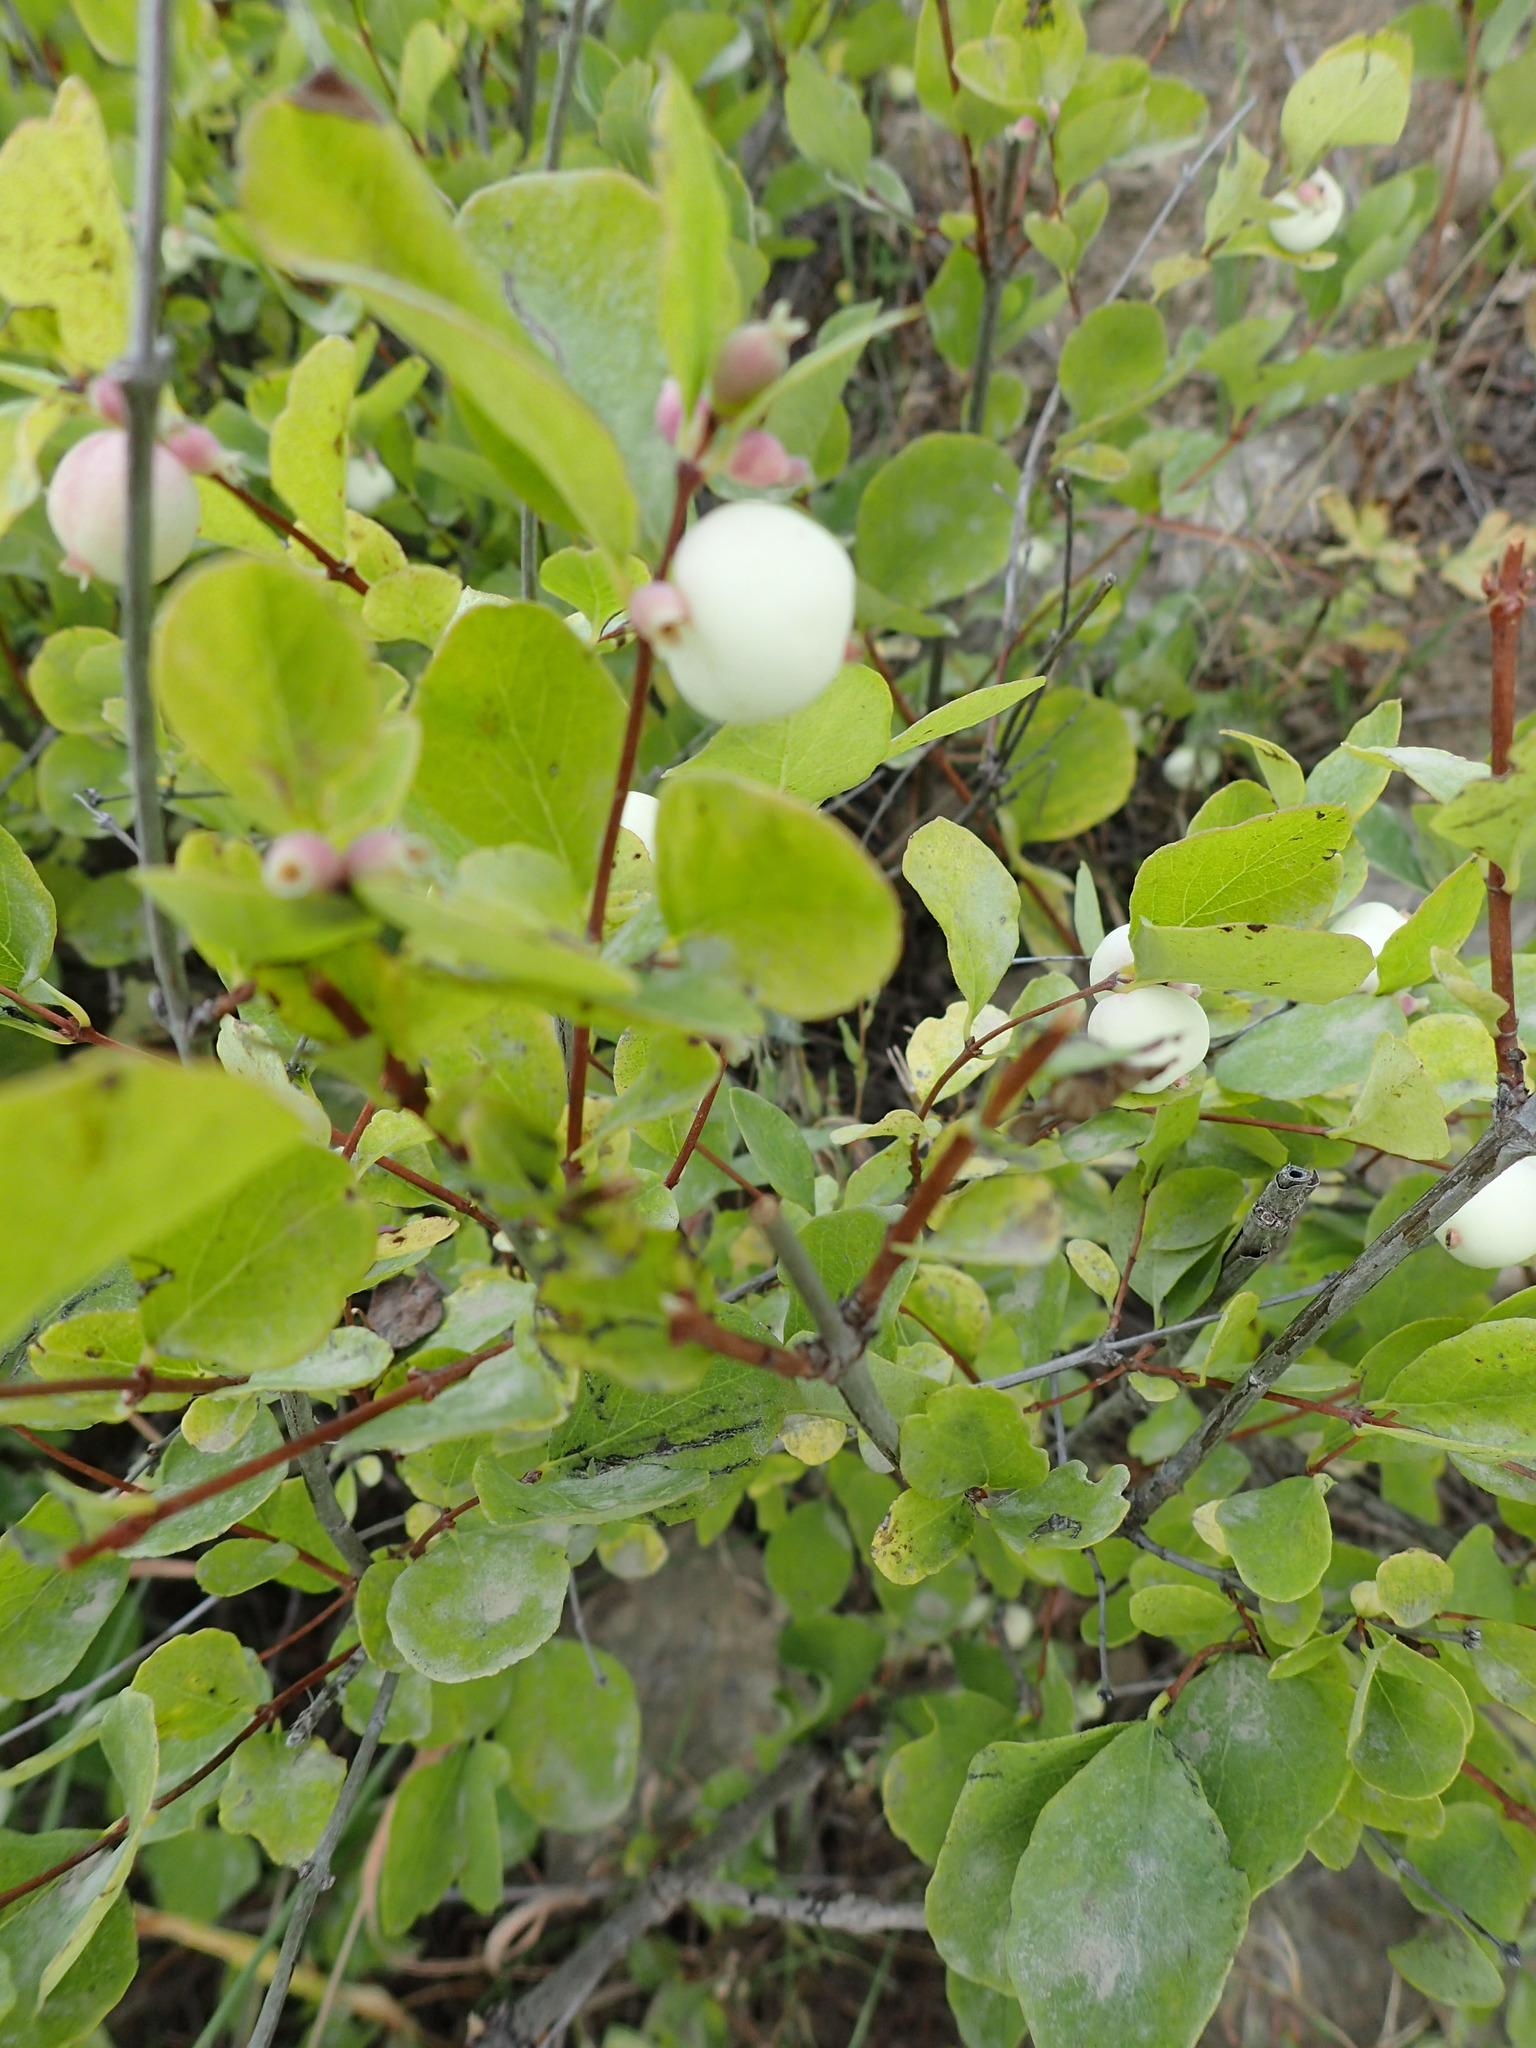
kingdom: Plantae
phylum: Tracheophyta
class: Magnoliopsida
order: Dipsacales
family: Caprifoliaceae
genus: Symphoricarpos
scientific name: Symphoricarpos albus
